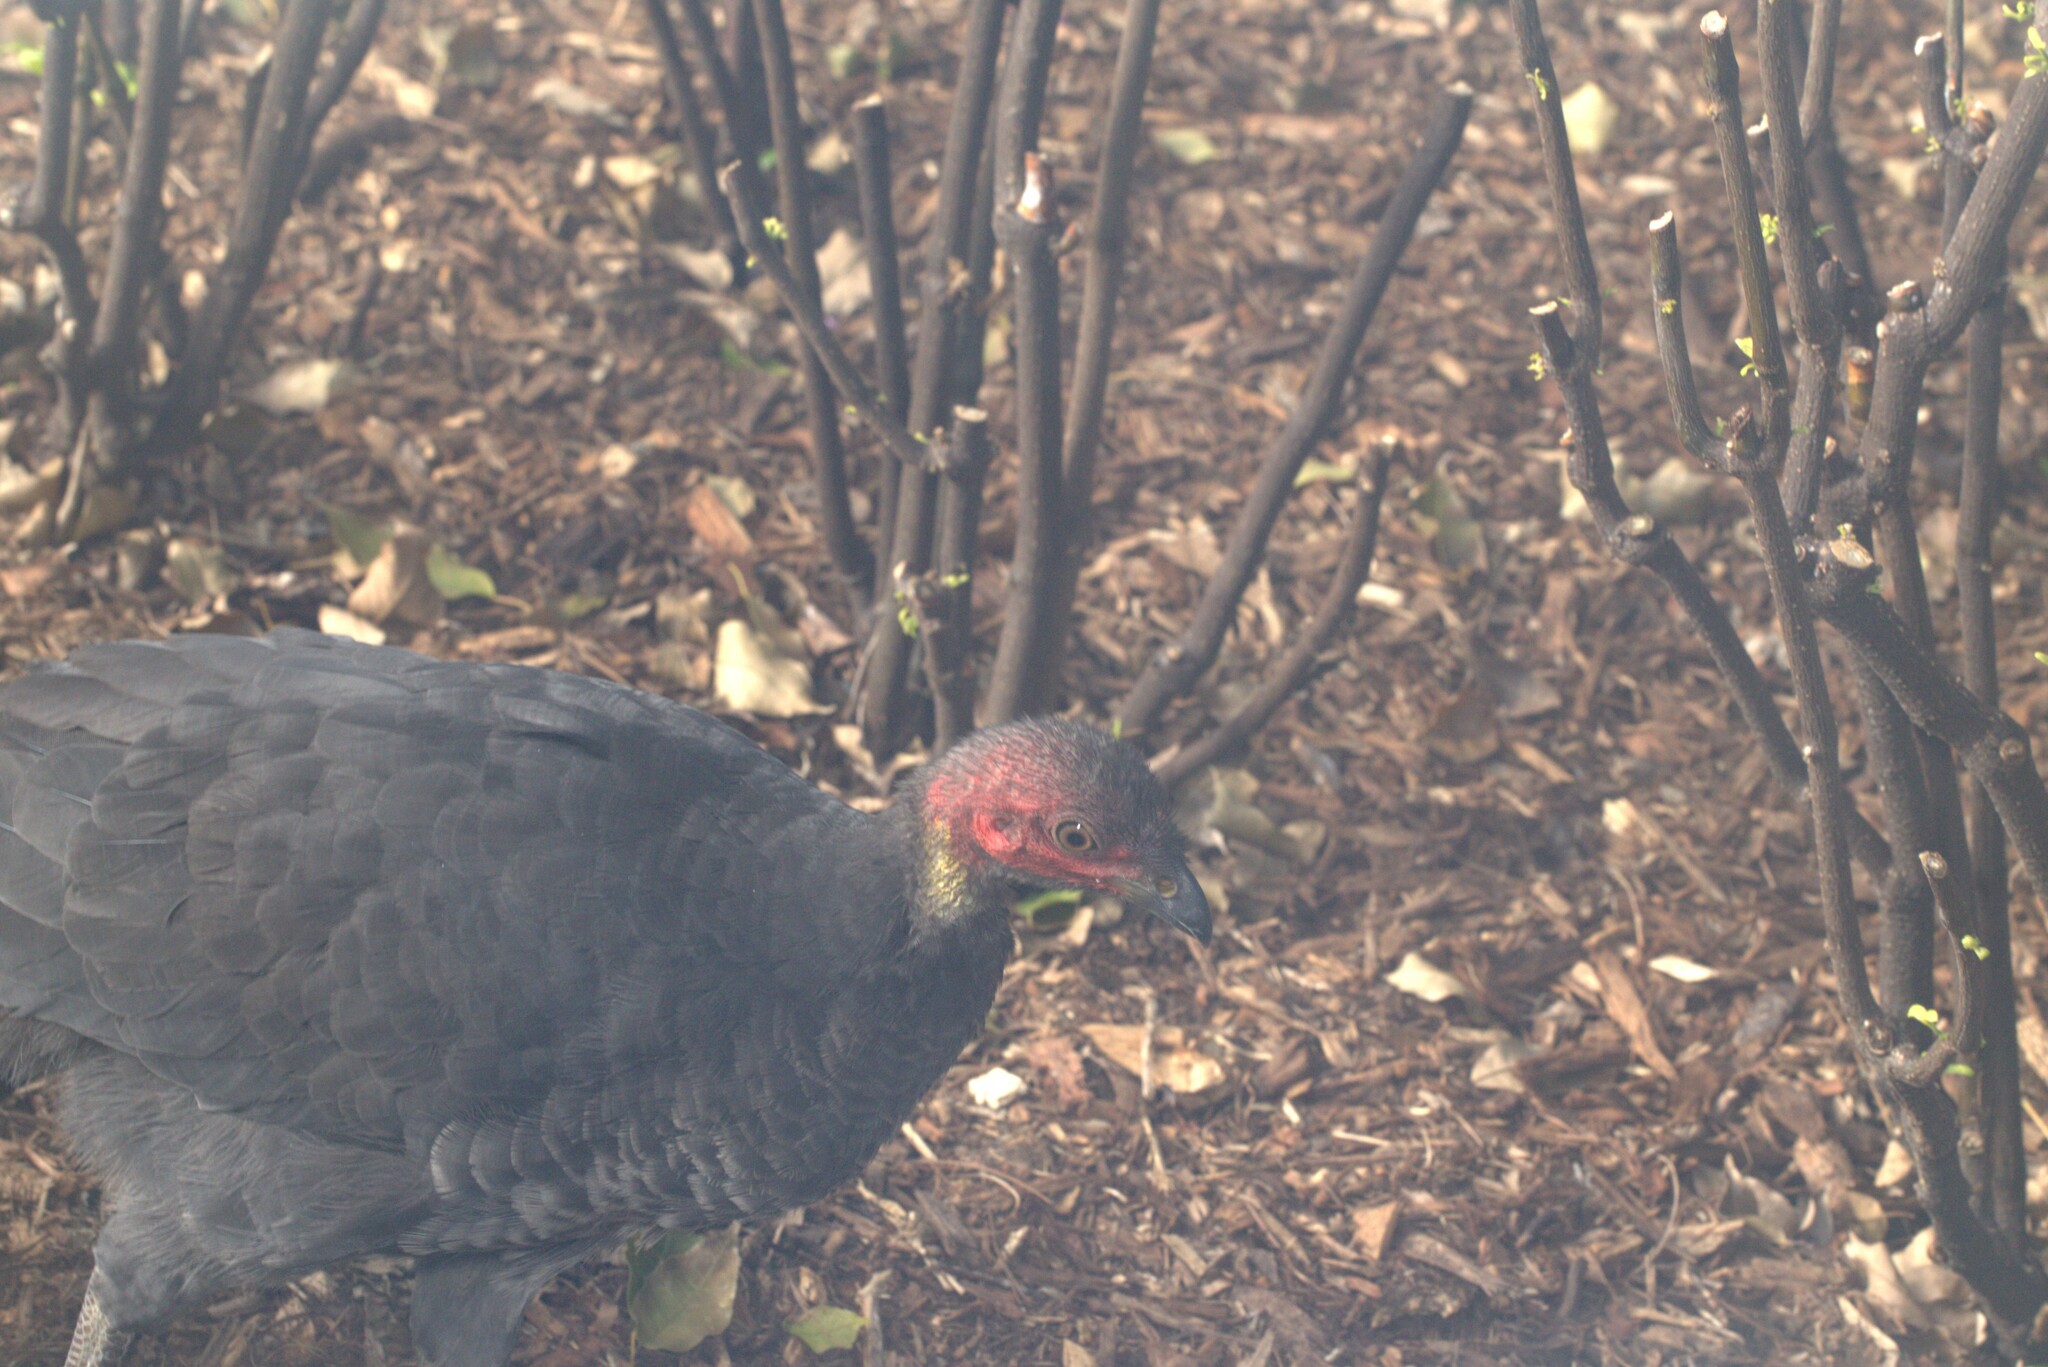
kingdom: Animalia
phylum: Chordata
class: Aves
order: Galliformes
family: Megapodiidae
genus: Alectura
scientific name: Alectura lathami
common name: Australian brushturkey
